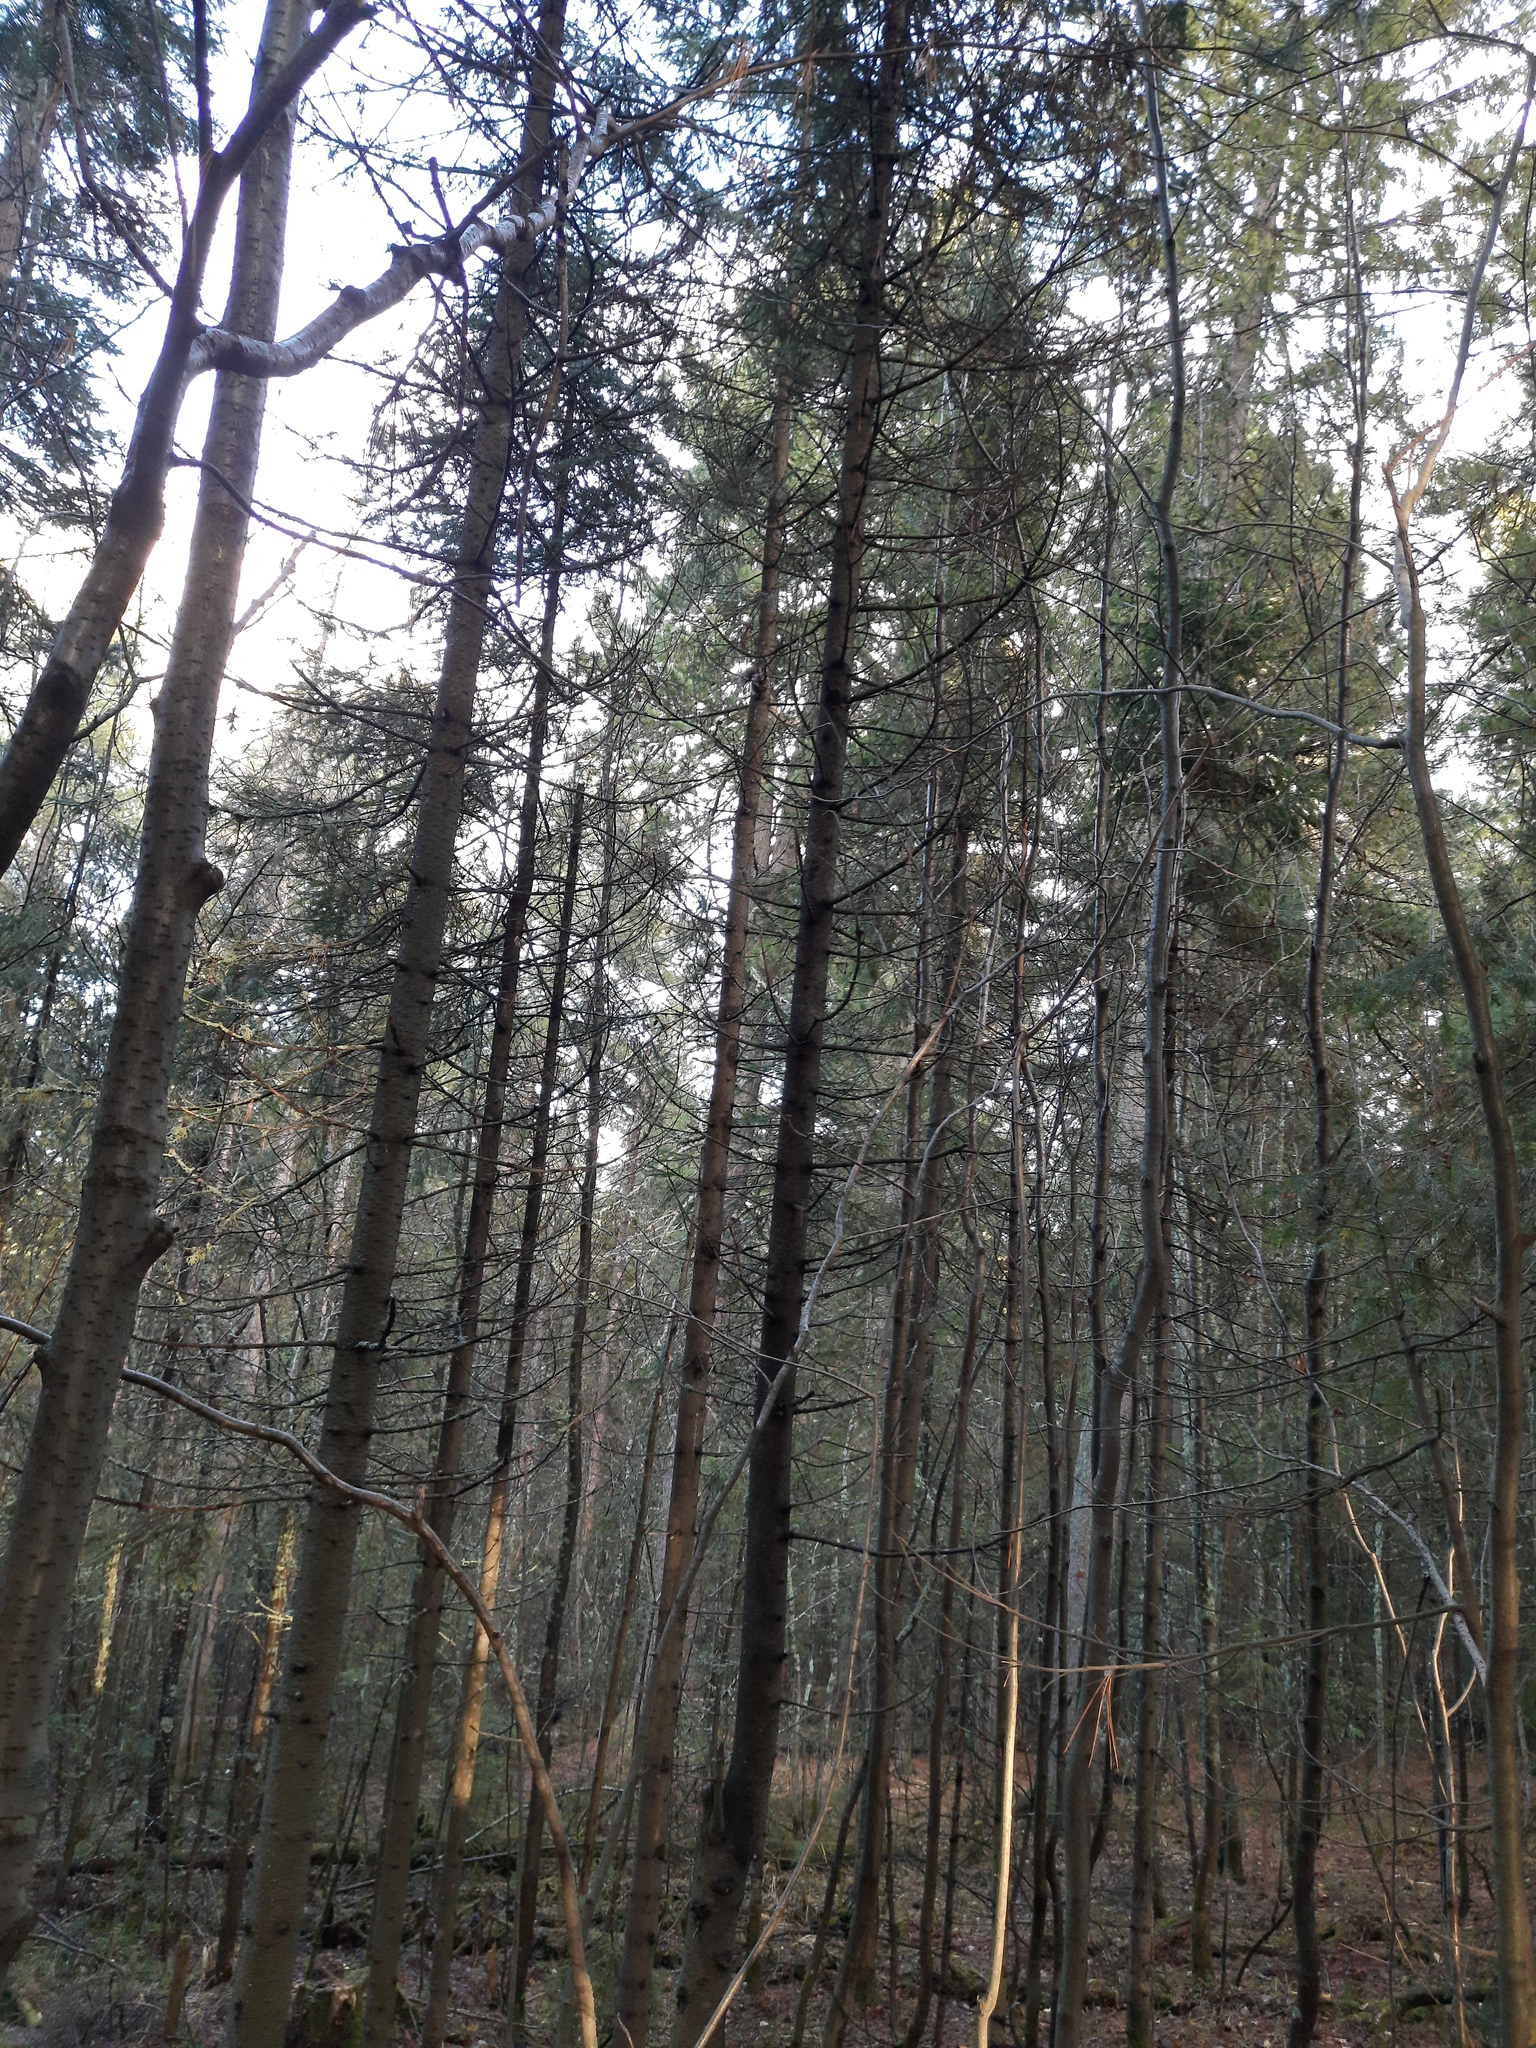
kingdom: Plantae
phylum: Tracheophyta
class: Pinopsida
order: Pinales
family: Pinaceae
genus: Picea
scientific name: Picea obovata
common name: Siberian spruce
